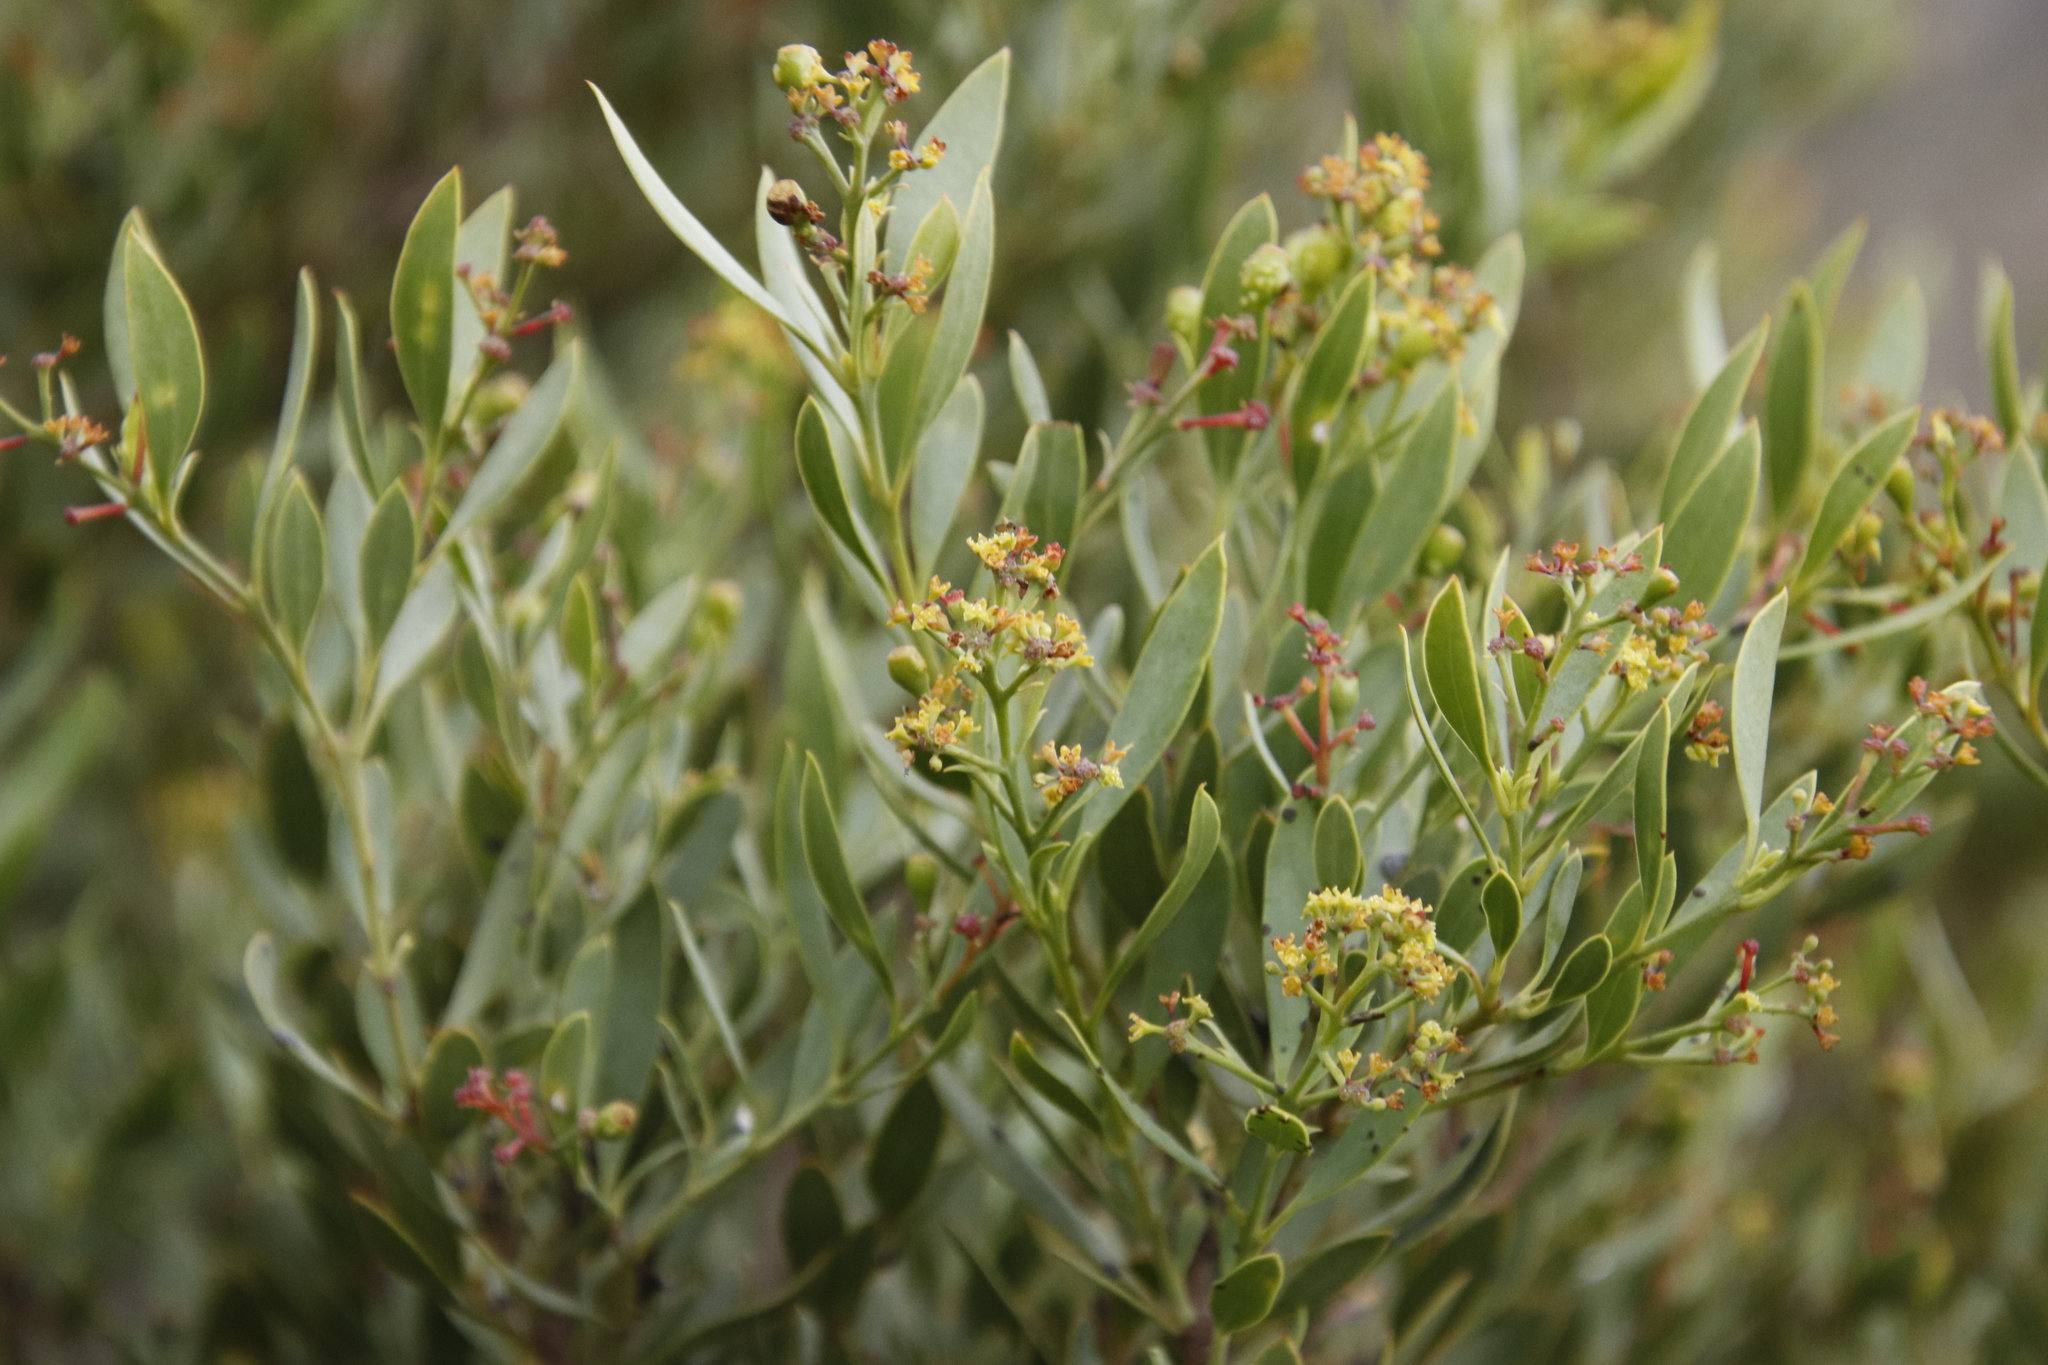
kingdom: Plantae
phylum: Tracheophyta
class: Magnoliopsida
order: Santalales
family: Santalaceae
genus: Osyris
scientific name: Osyris compressa
